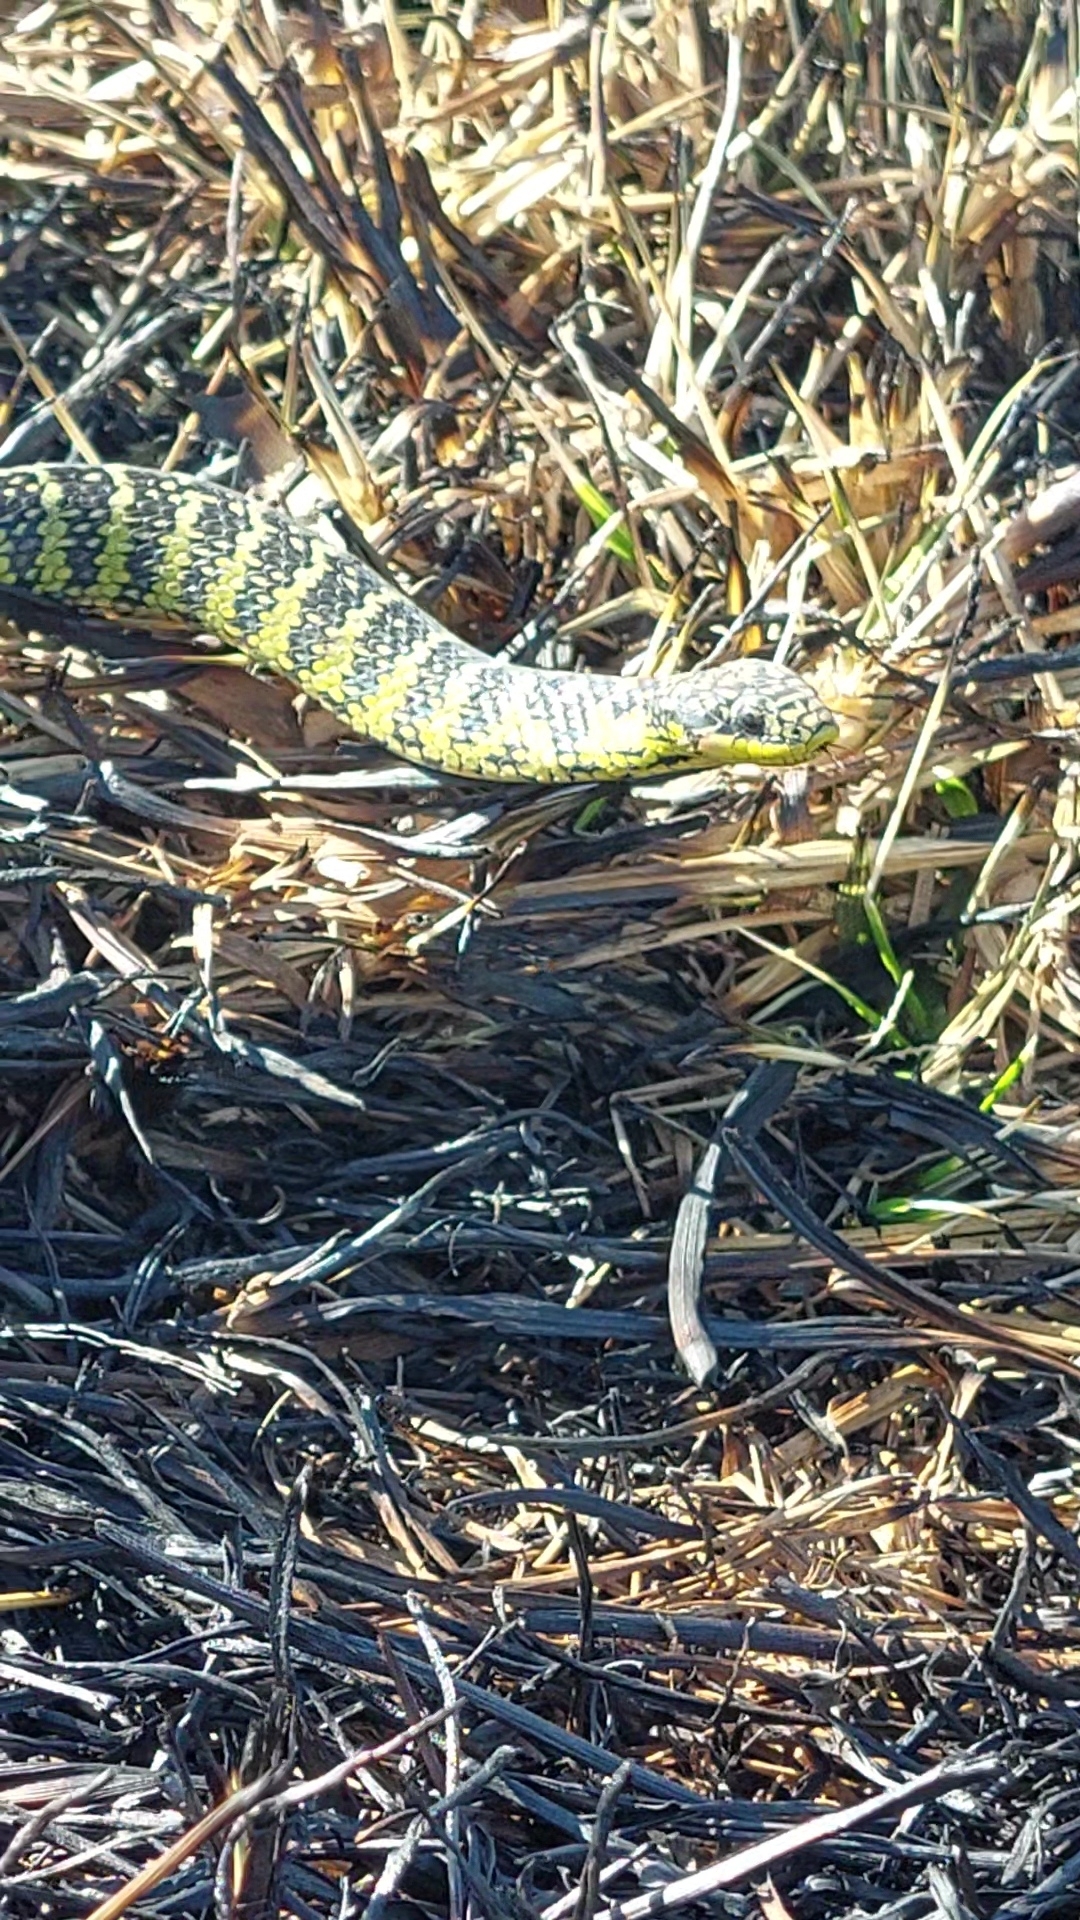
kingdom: Animalia
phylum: Chordata
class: Squamata
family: Colubridae
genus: Erythrolamprus
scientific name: Erythrolamprus poecilogyrus
